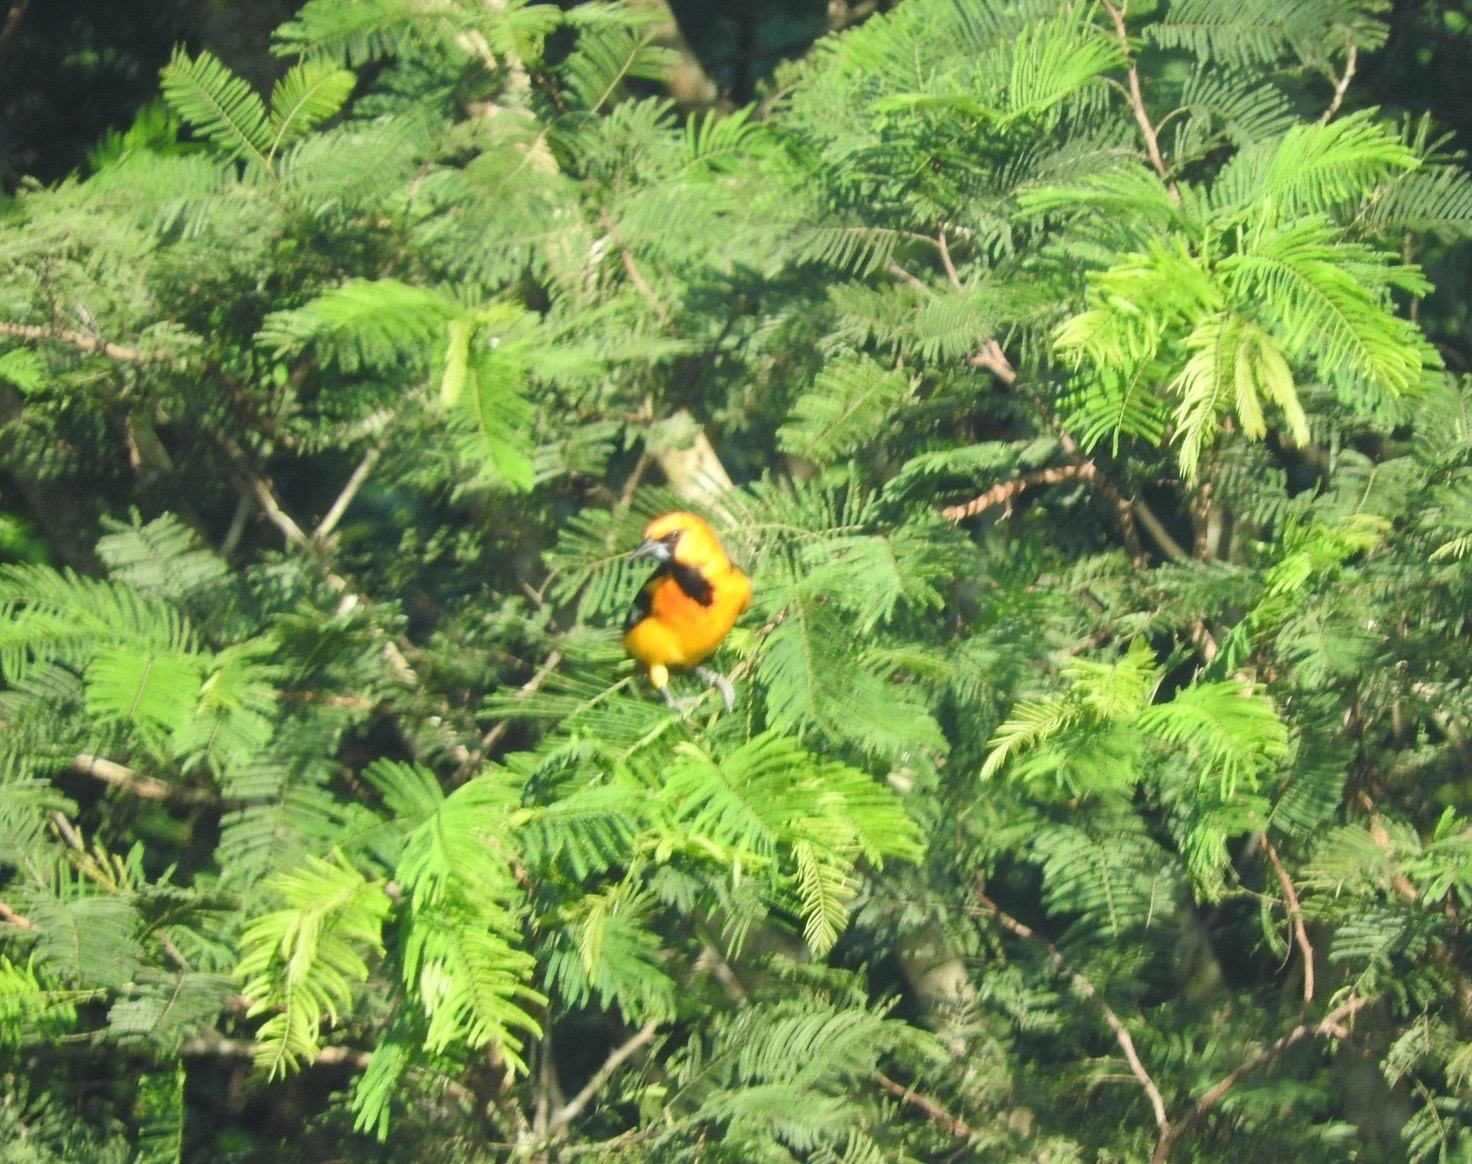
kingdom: Animalia
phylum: Chordata
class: Aves
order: Passeriformes
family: Icteridae
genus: Icterus
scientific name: Icterus gularis
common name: Altamira oriole
